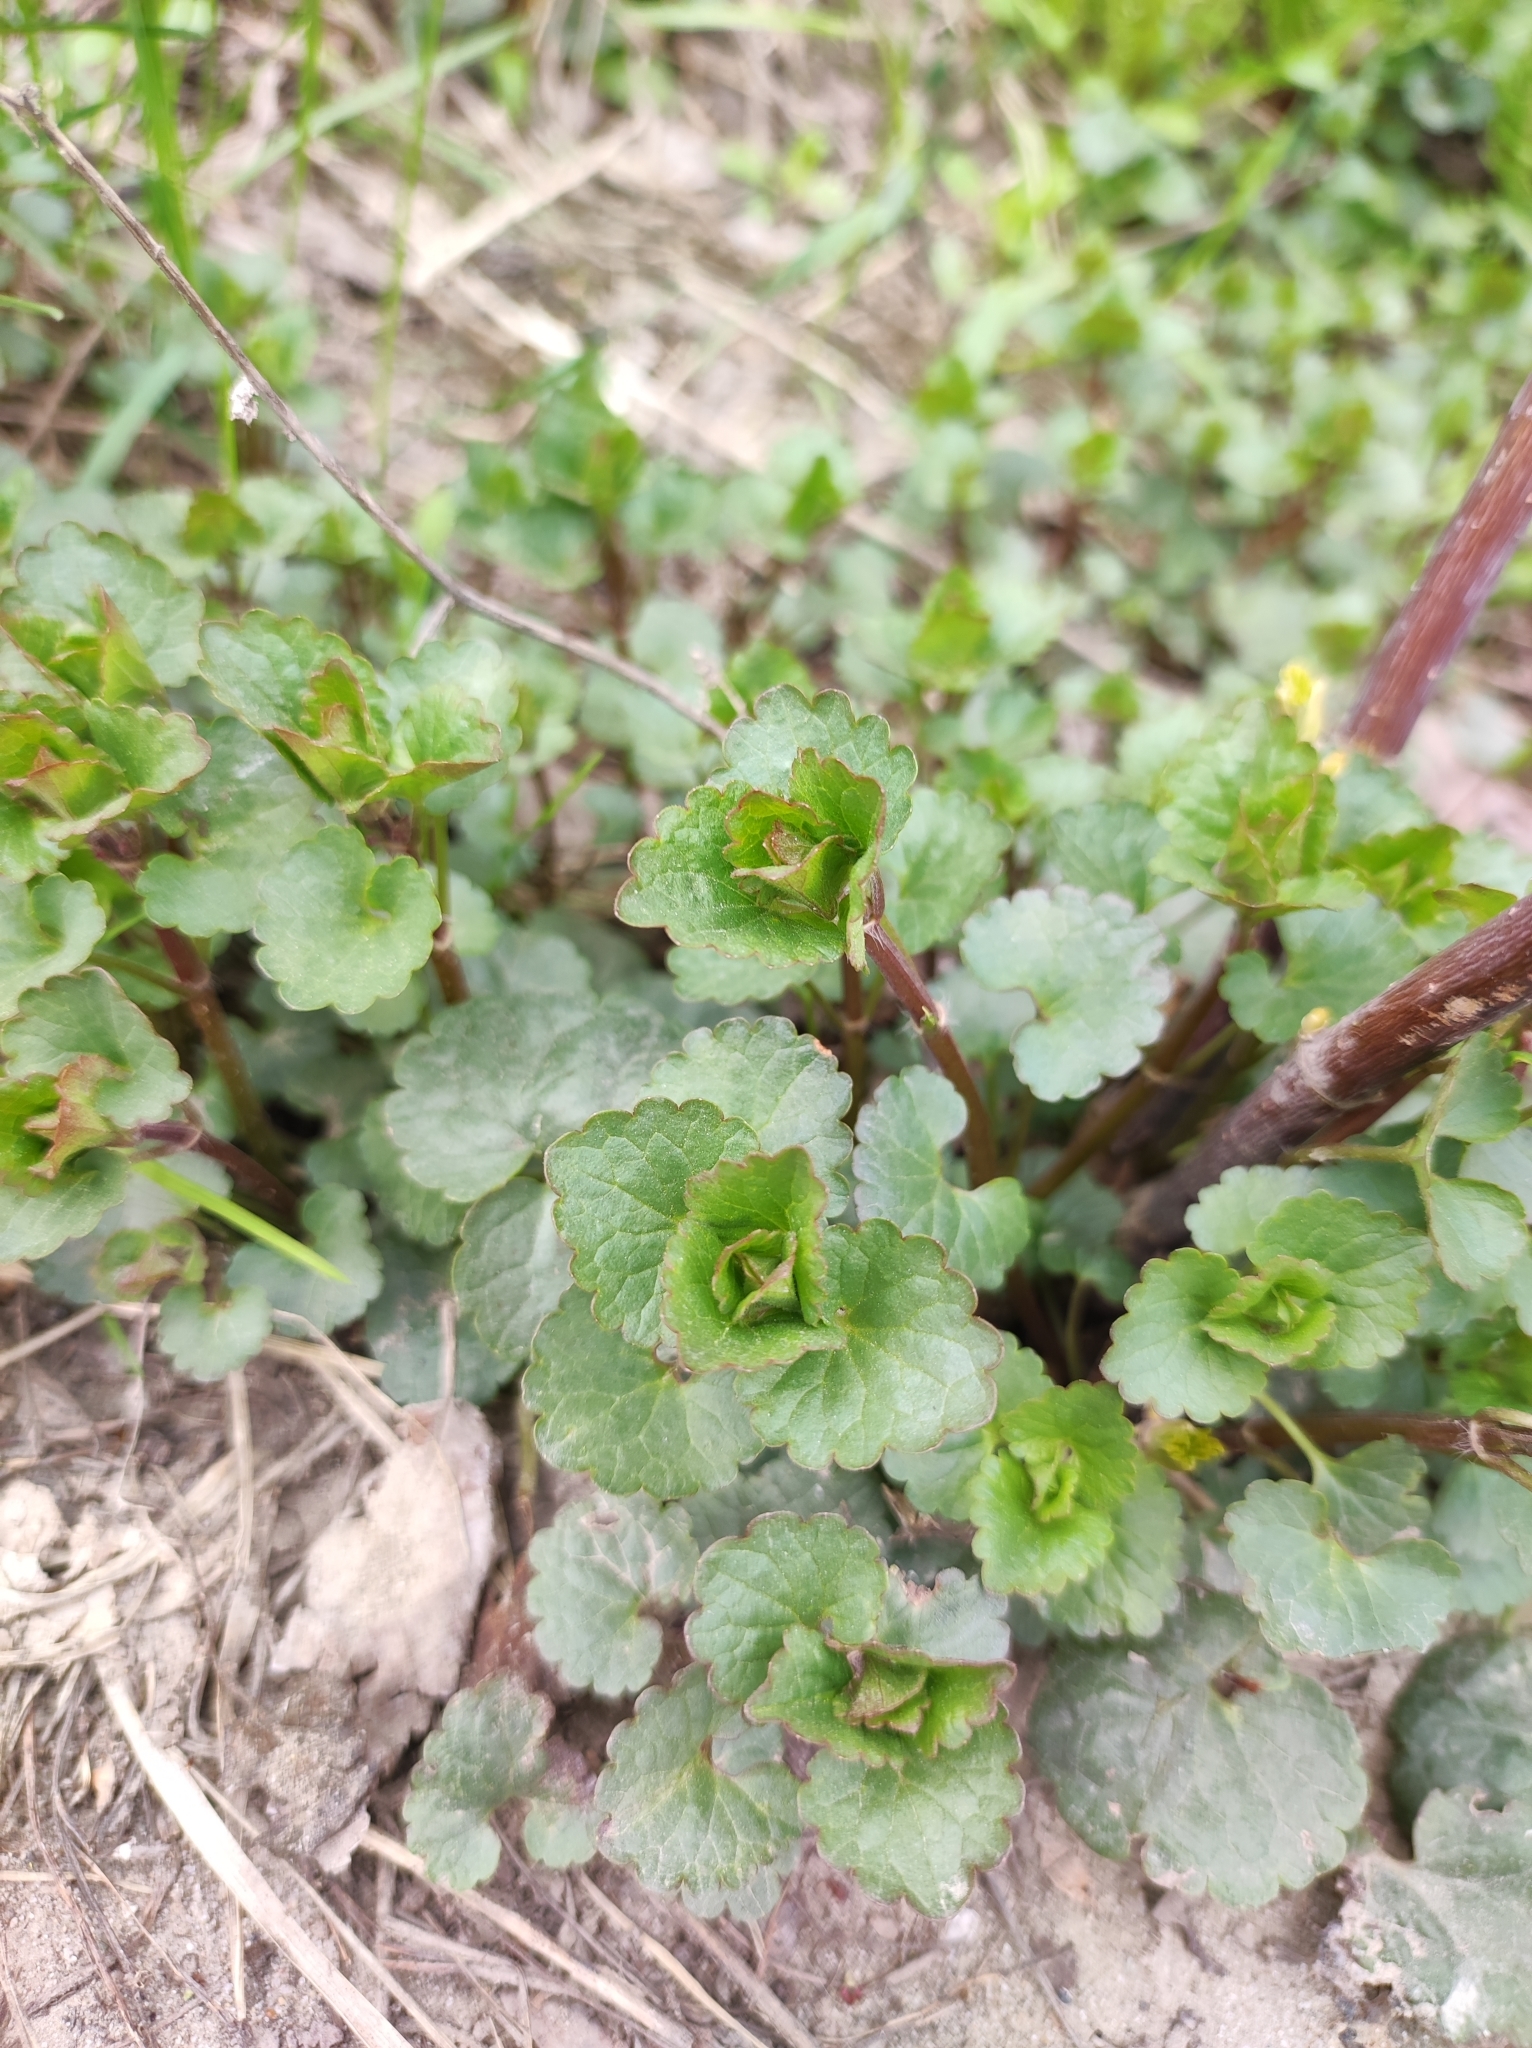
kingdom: Plantae
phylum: Tracheophyta
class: Magnoliopsida
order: Lamiales
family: Lamiaceae
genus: Glechoma
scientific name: Glechoma hederacea
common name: Ground ivy
